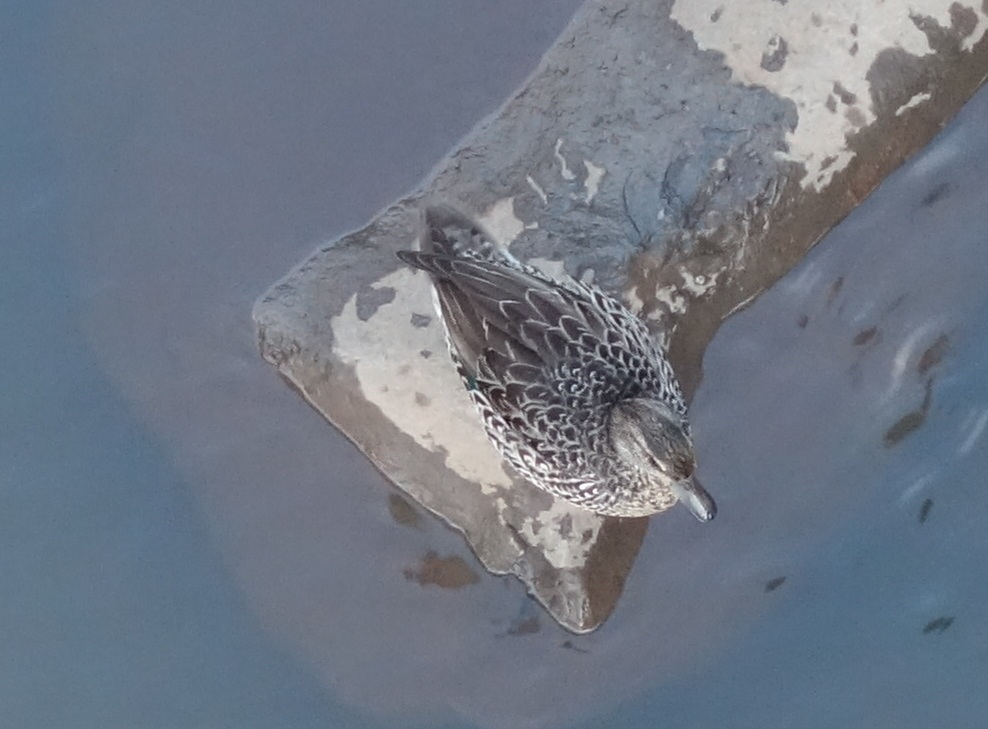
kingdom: Animalia
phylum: Chordata
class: Aves
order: Anseriformes
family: Anatidae
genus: Anas
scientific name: Anas crecca
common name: Eurasian teal
